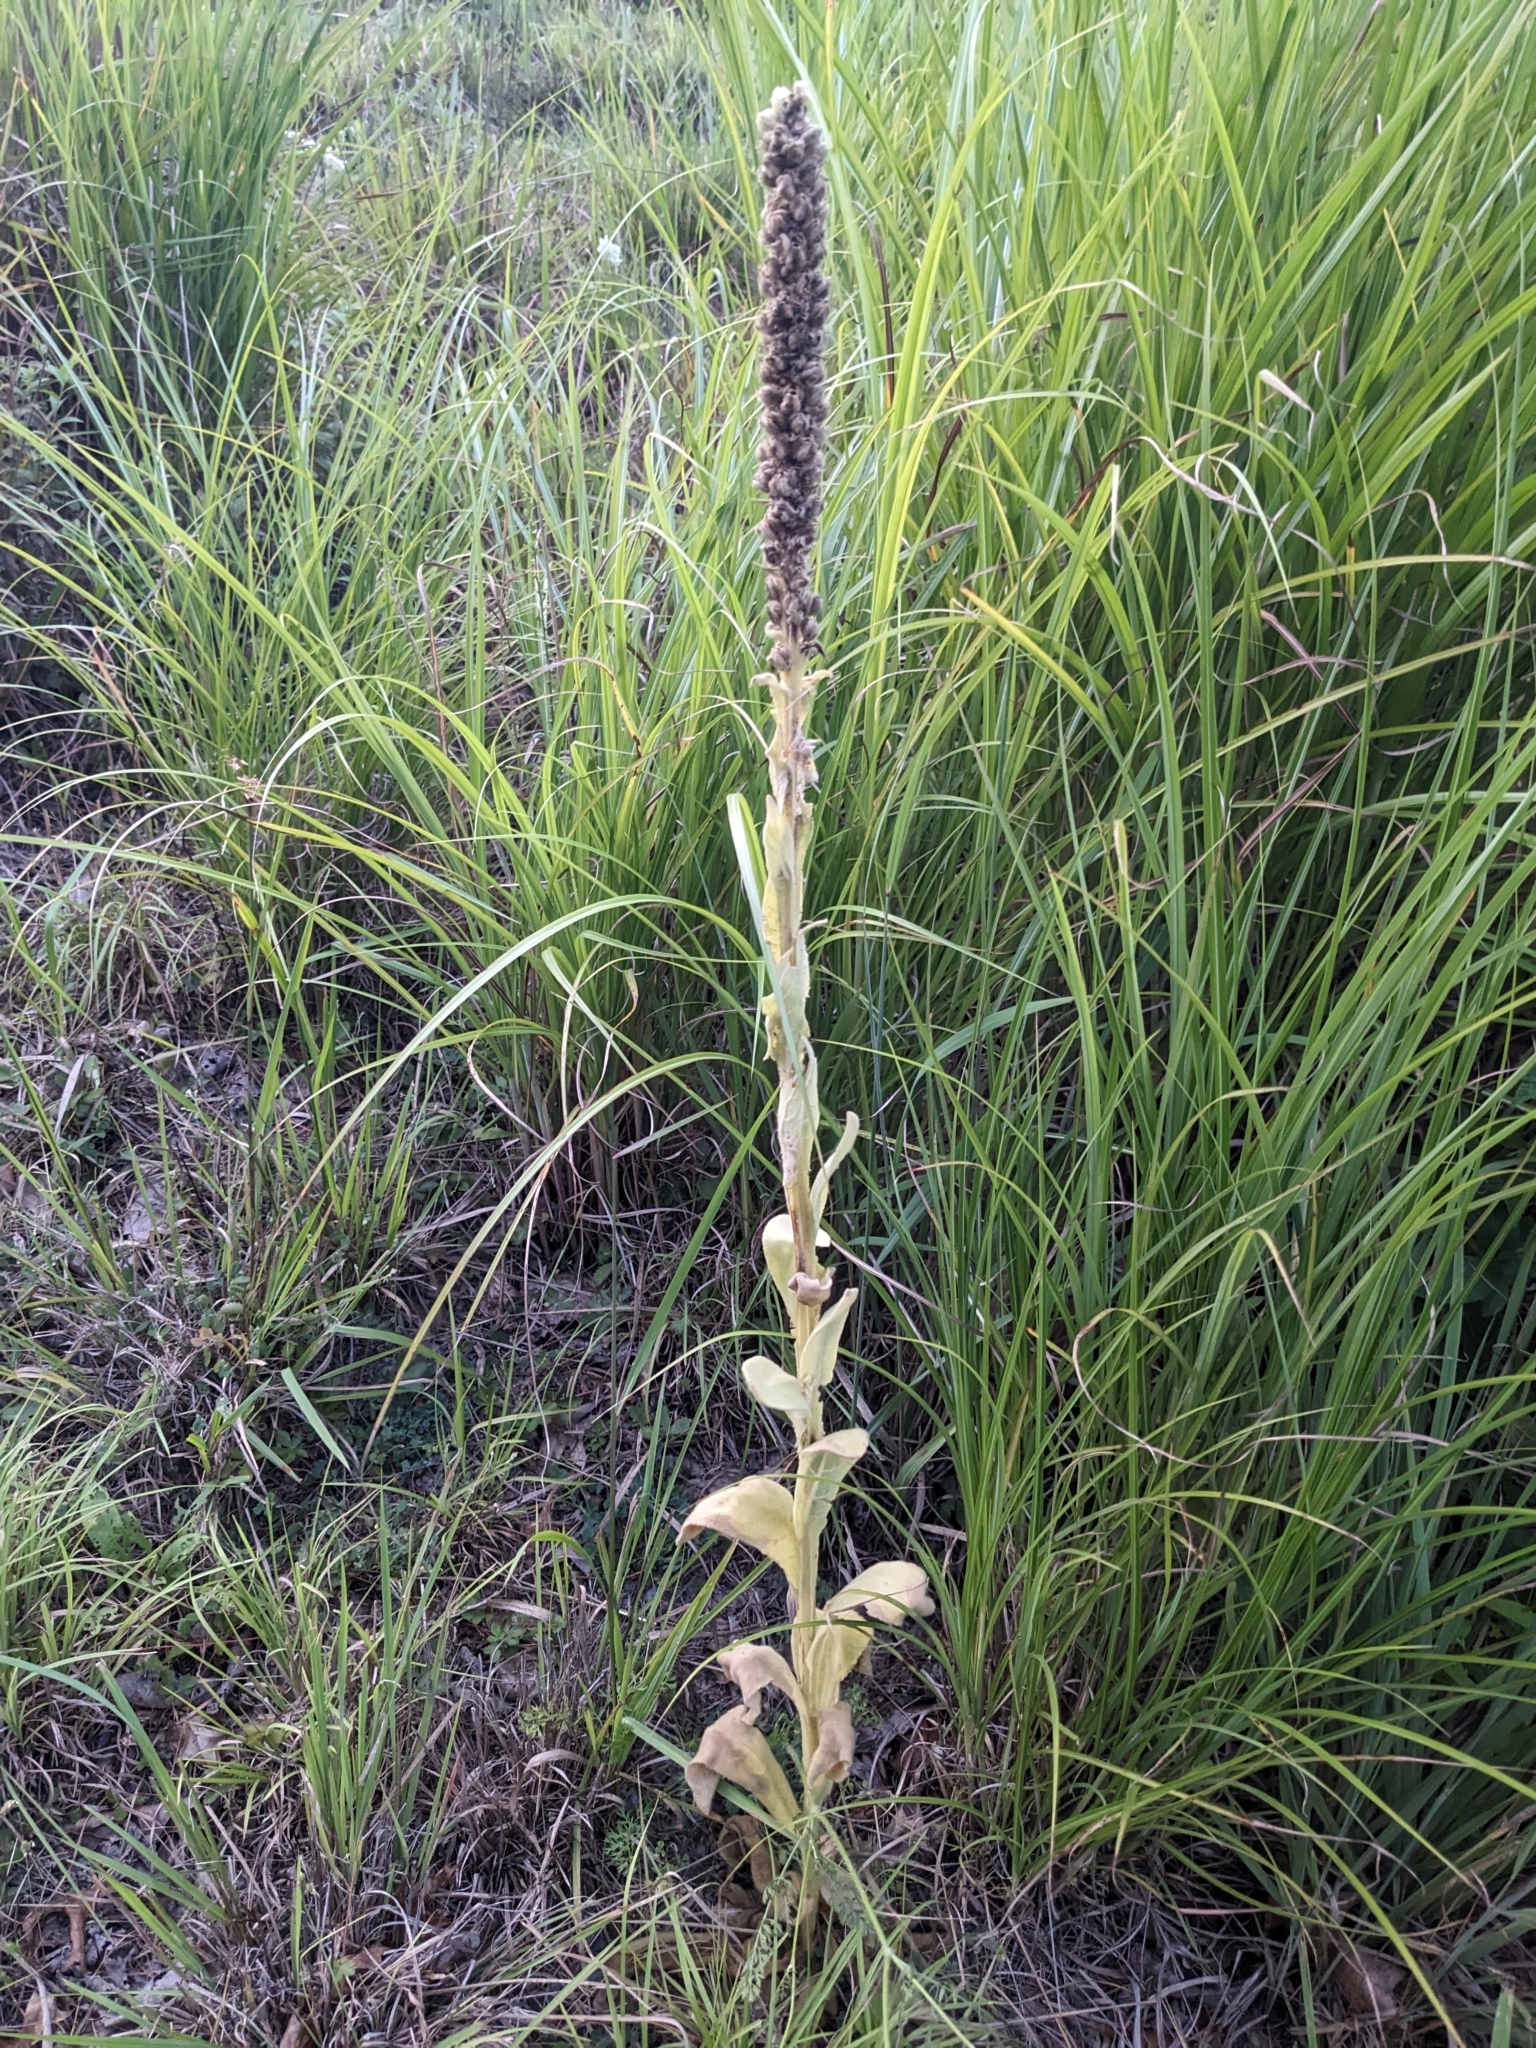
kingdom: Plantae
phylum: Tracheophyta
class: Magnoliopsida
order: Lamiales
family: Scrophulariaceae
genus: Verbascum
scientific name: Verbascum thapsus
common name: Common mullein
